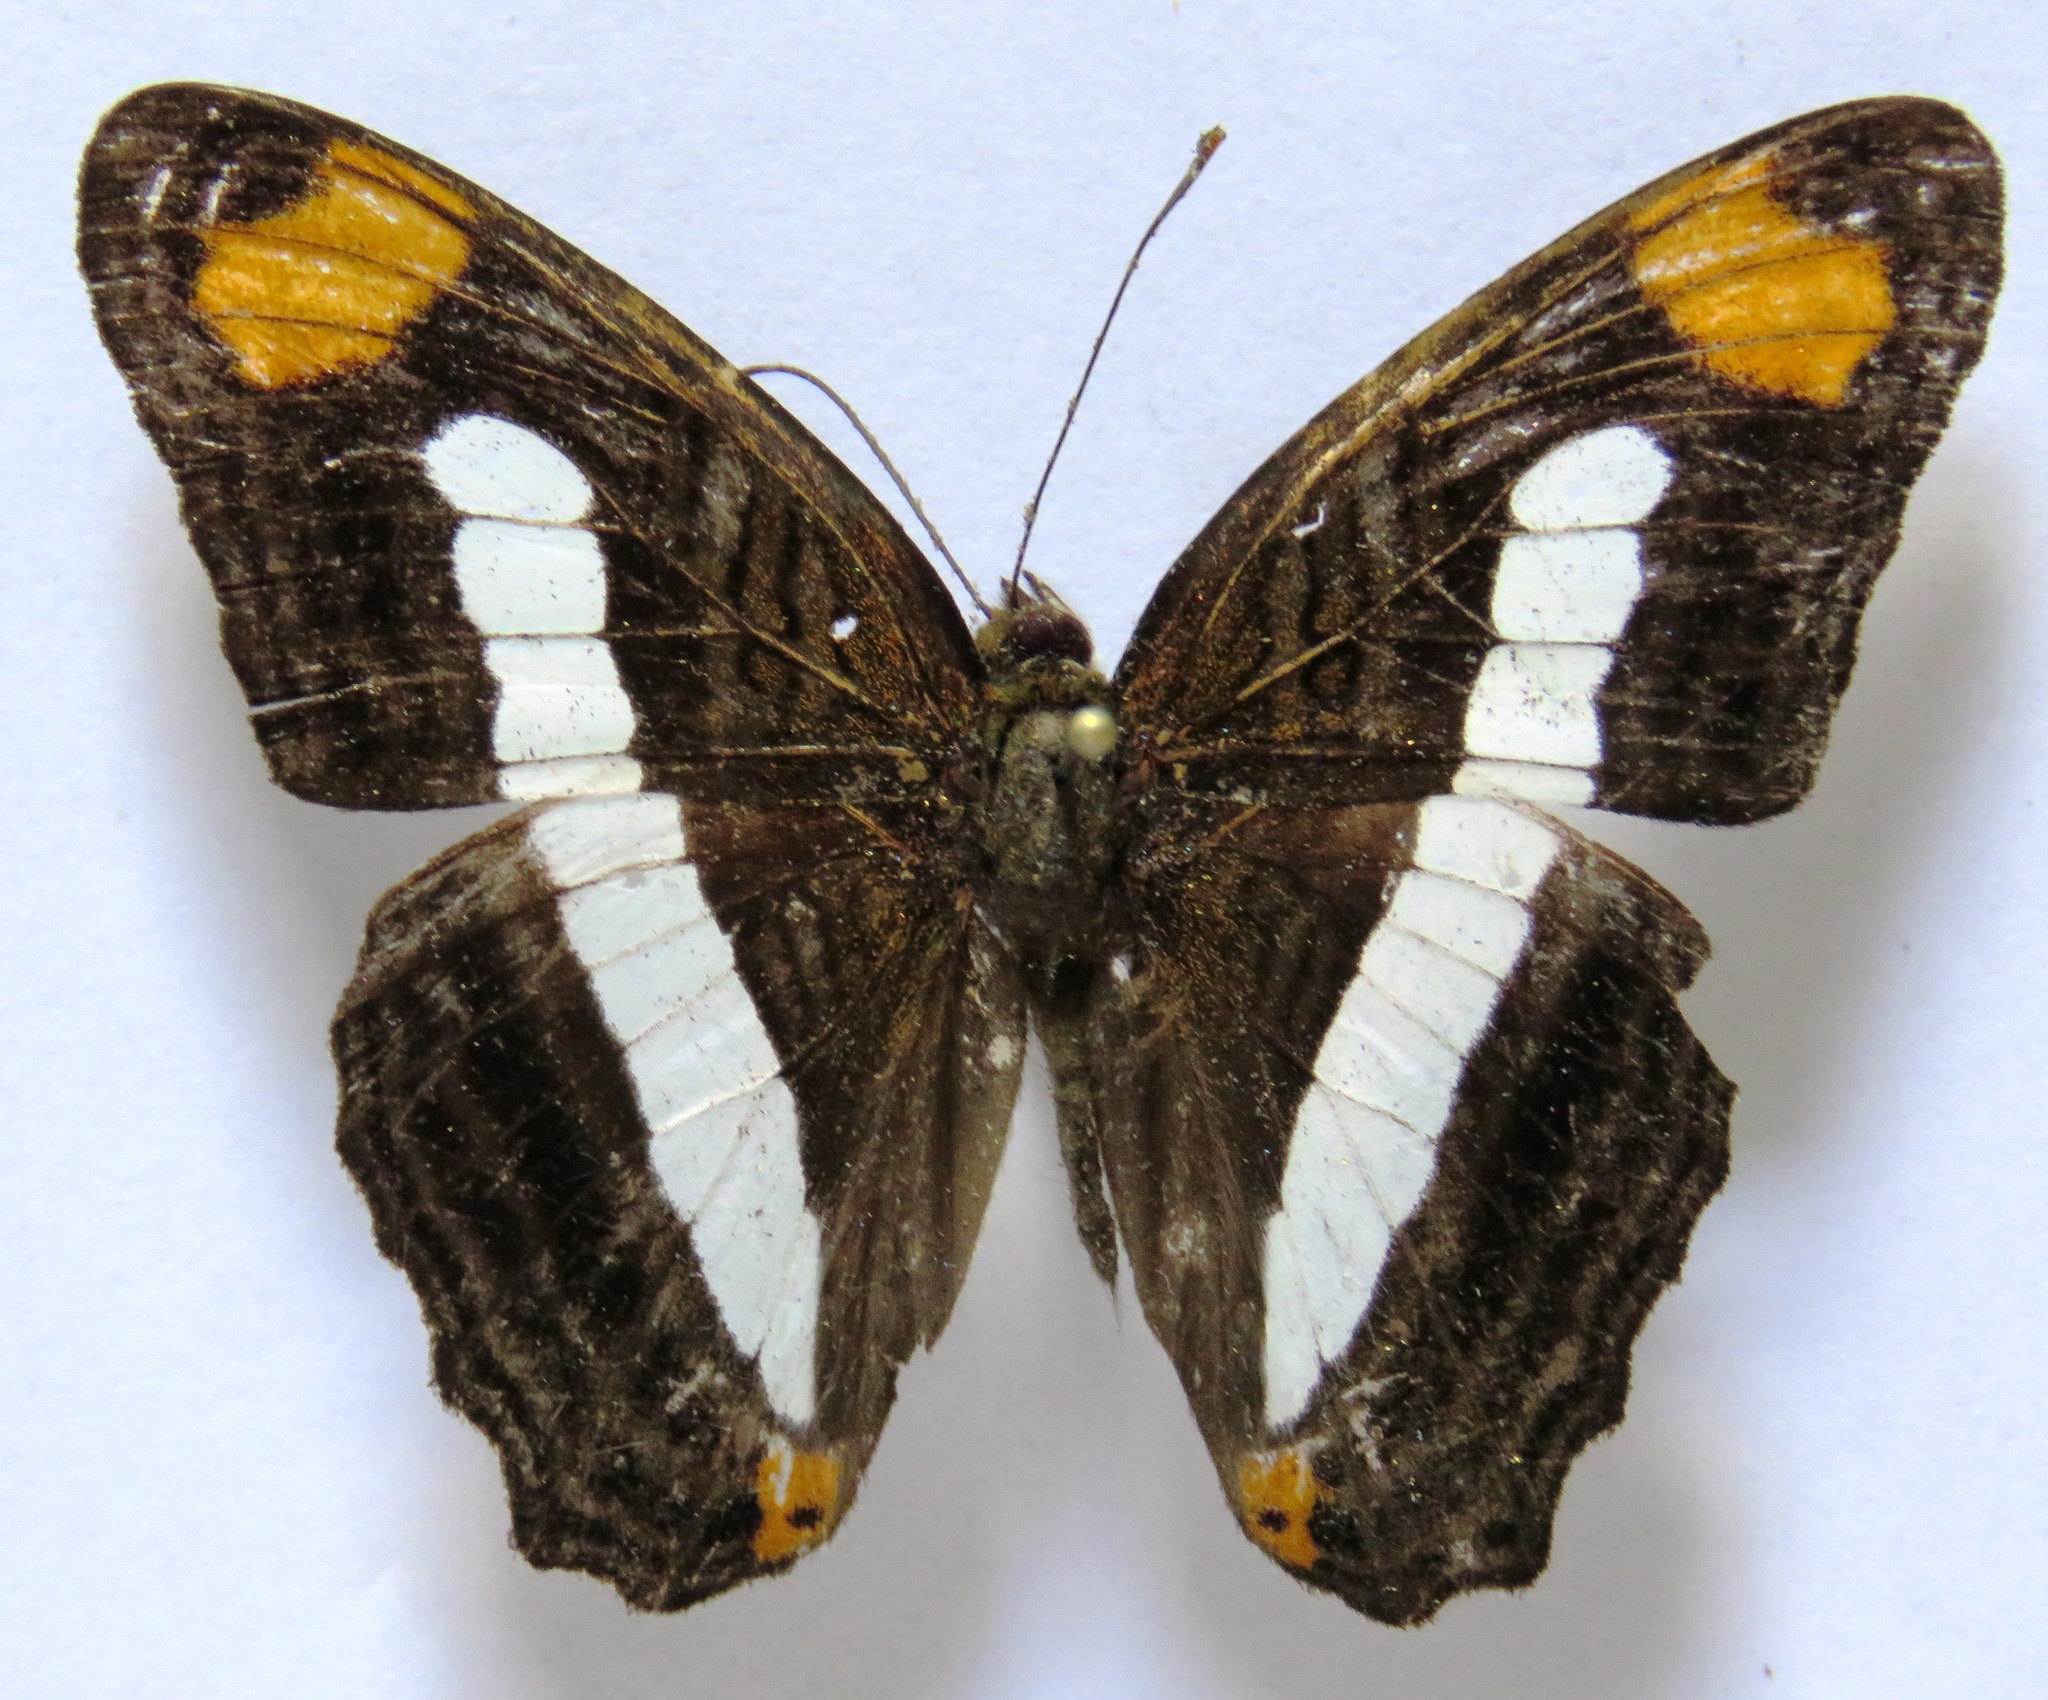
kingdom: Animalia
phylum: Arthropoda
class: Insecta
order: Lepidoptera
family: Nymphalidae
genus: Limenitis
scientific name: Limenitis iphiclus
